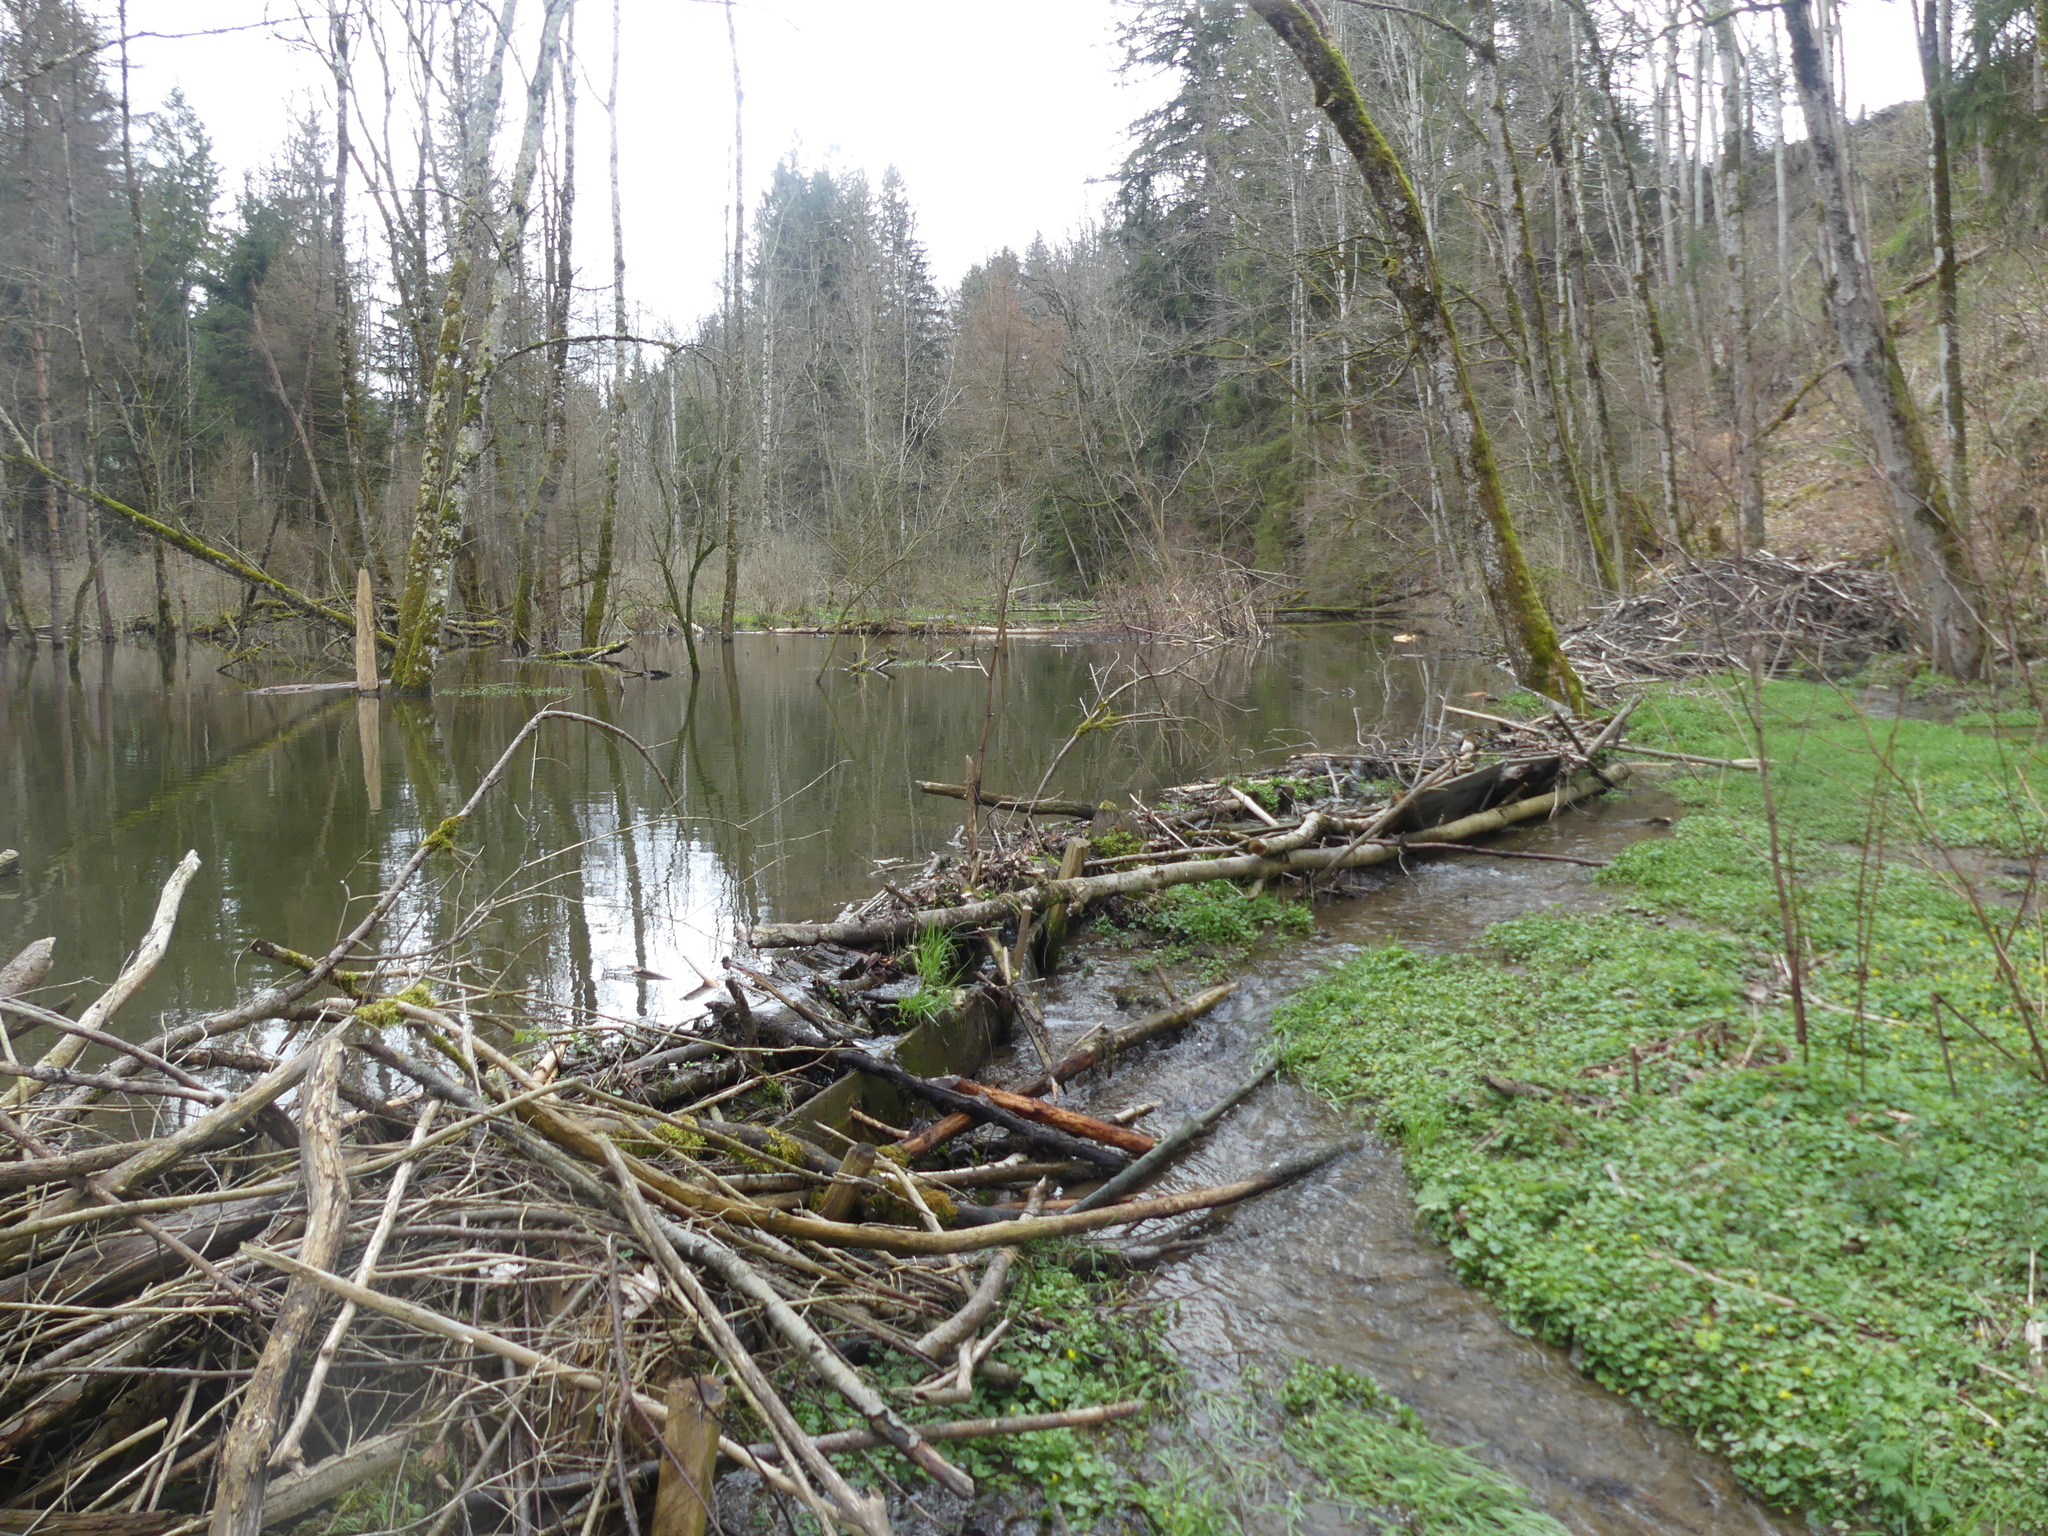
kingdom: Animalia
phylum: Chordata
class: Mammalia
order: Rodentia
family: Castoridae
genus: Castor
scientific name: Castor fiber
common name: Eurasian beaver
